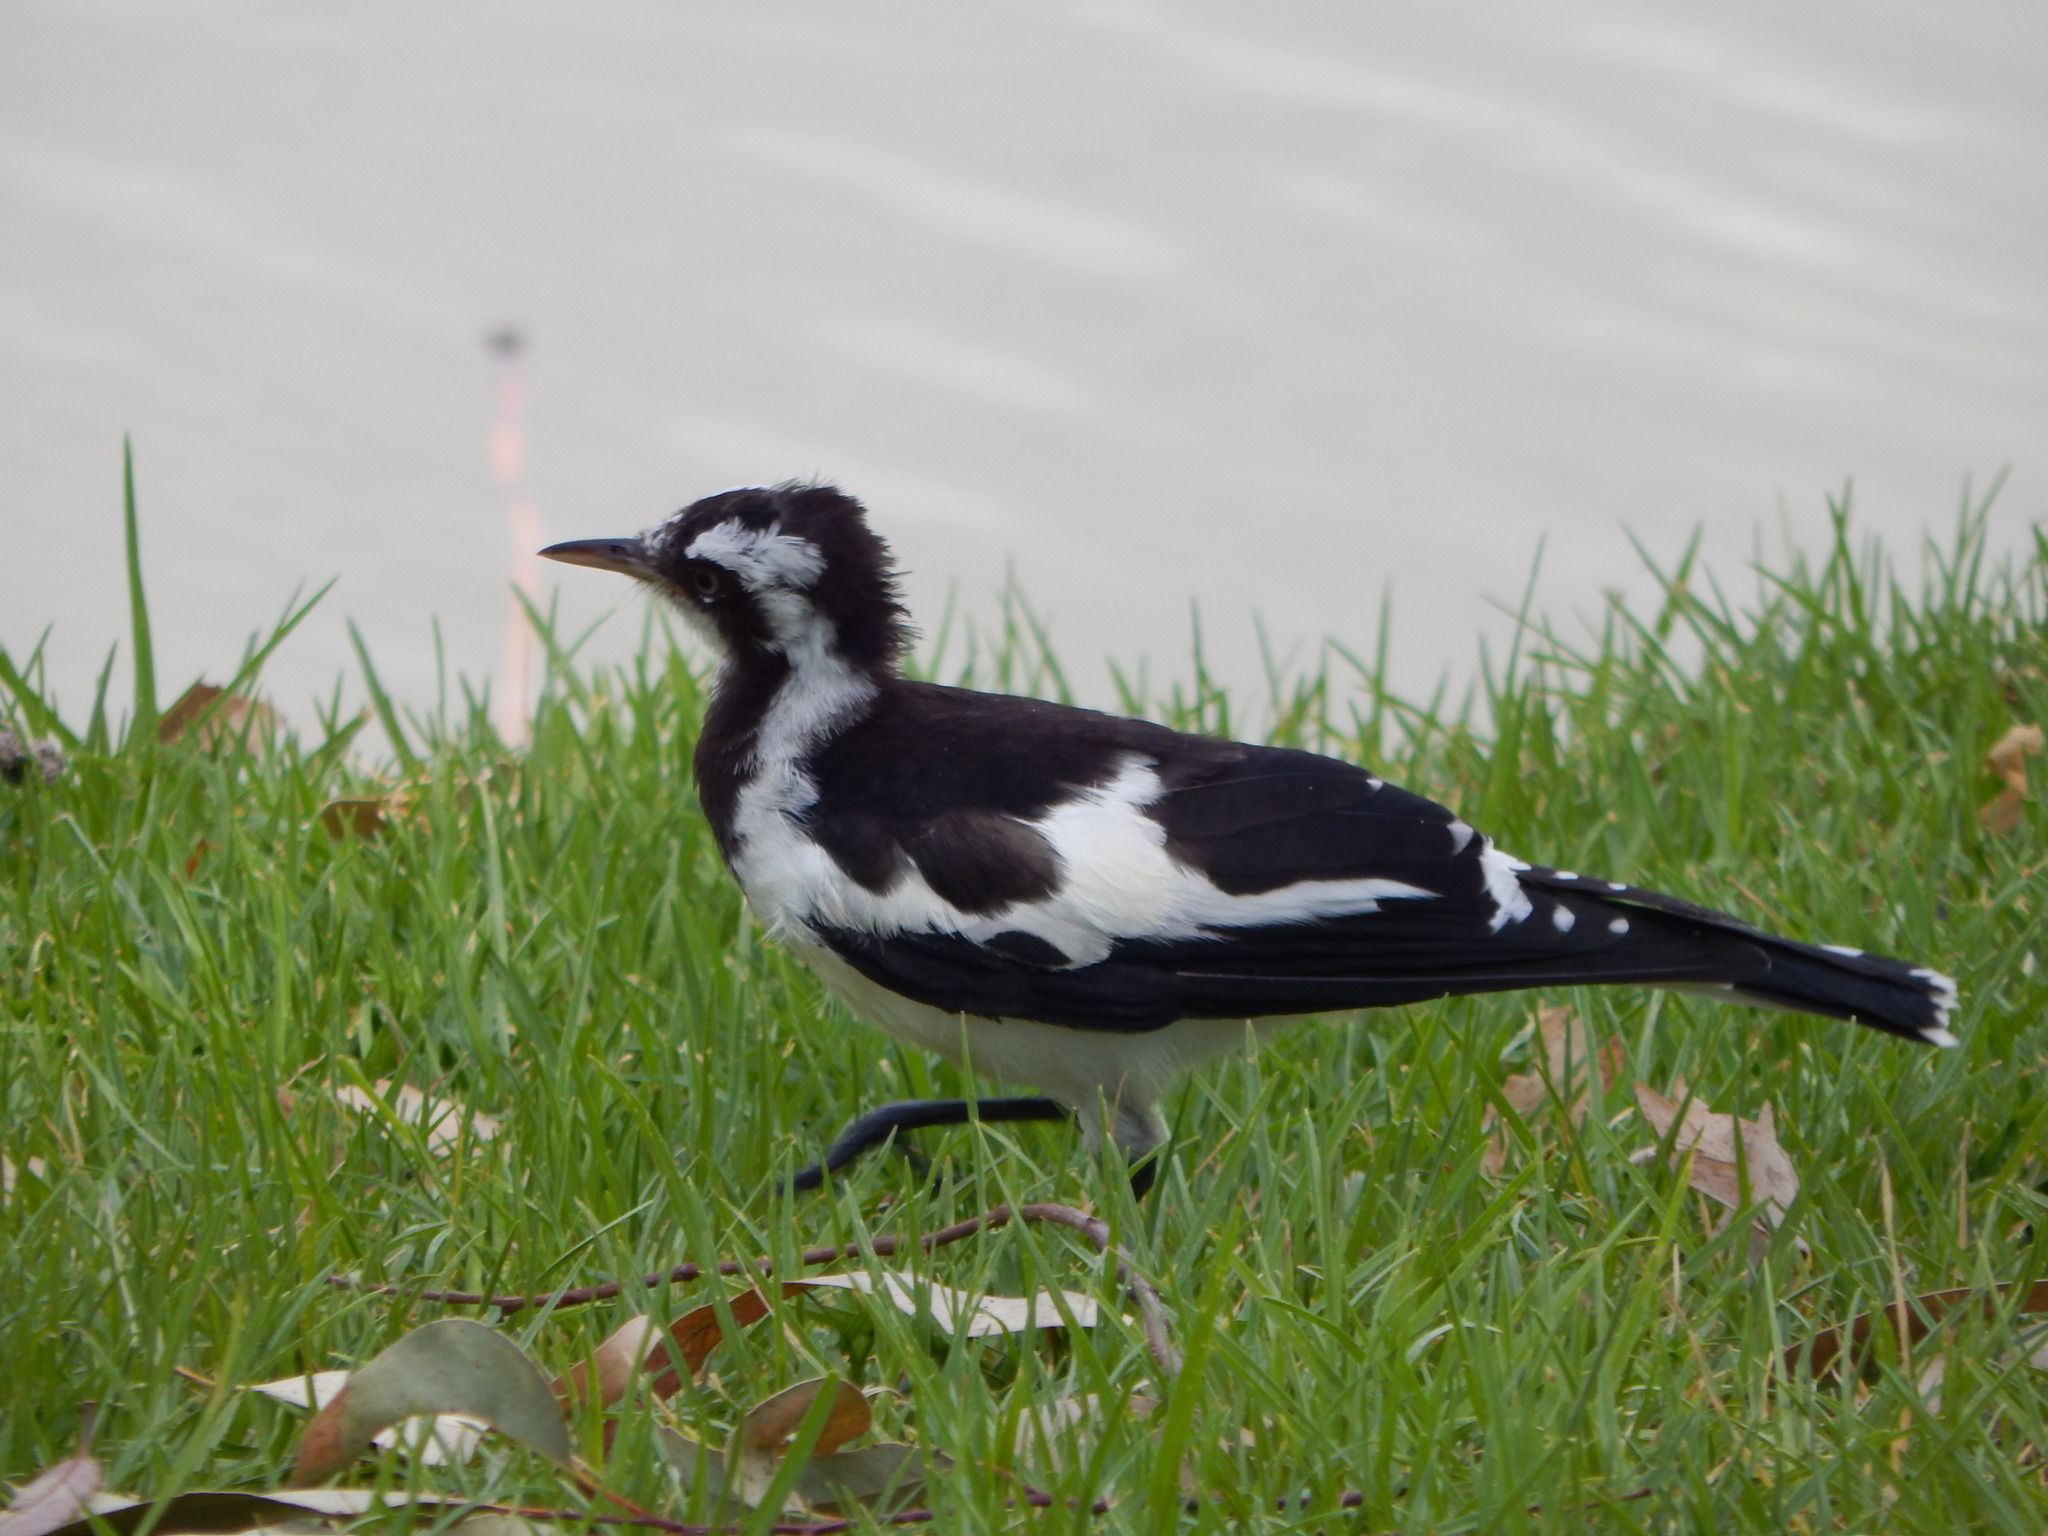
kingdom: Animalia
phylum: Chordata
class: Aves
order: Passeriformes
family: Monarchidae
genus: Grallina
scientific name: Grallina cyanoleuca
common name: Magpie-lark
